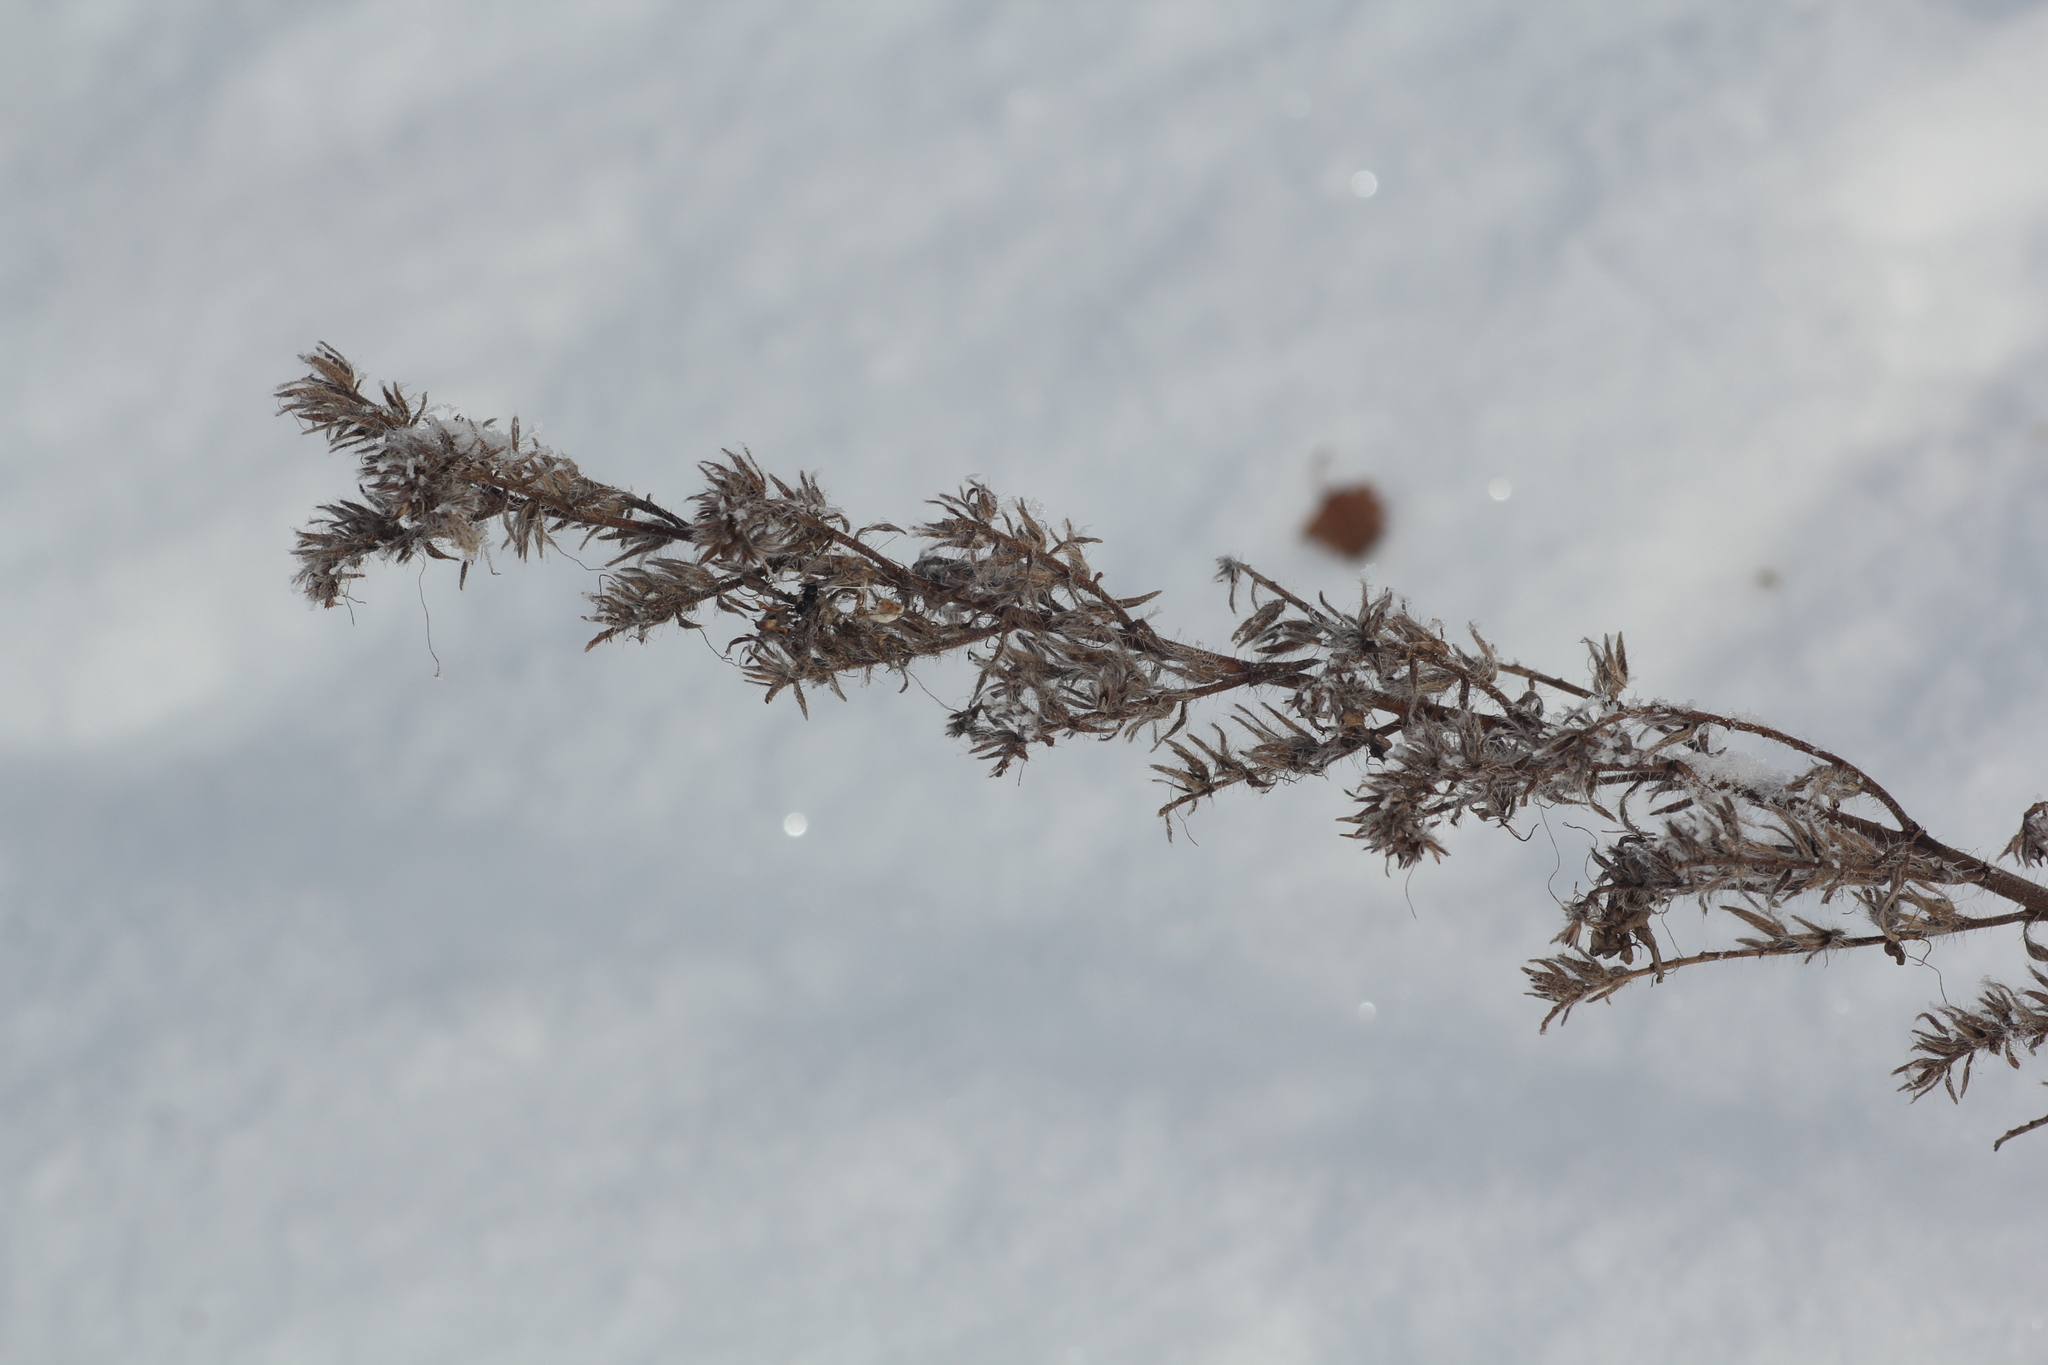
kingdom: Plantae
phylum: Tracheophyta
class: Magnoliopsida
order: Boraginales
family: Boraginaceae
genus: Echium
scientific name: Echium vulgare
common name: Common viper's bugloss
